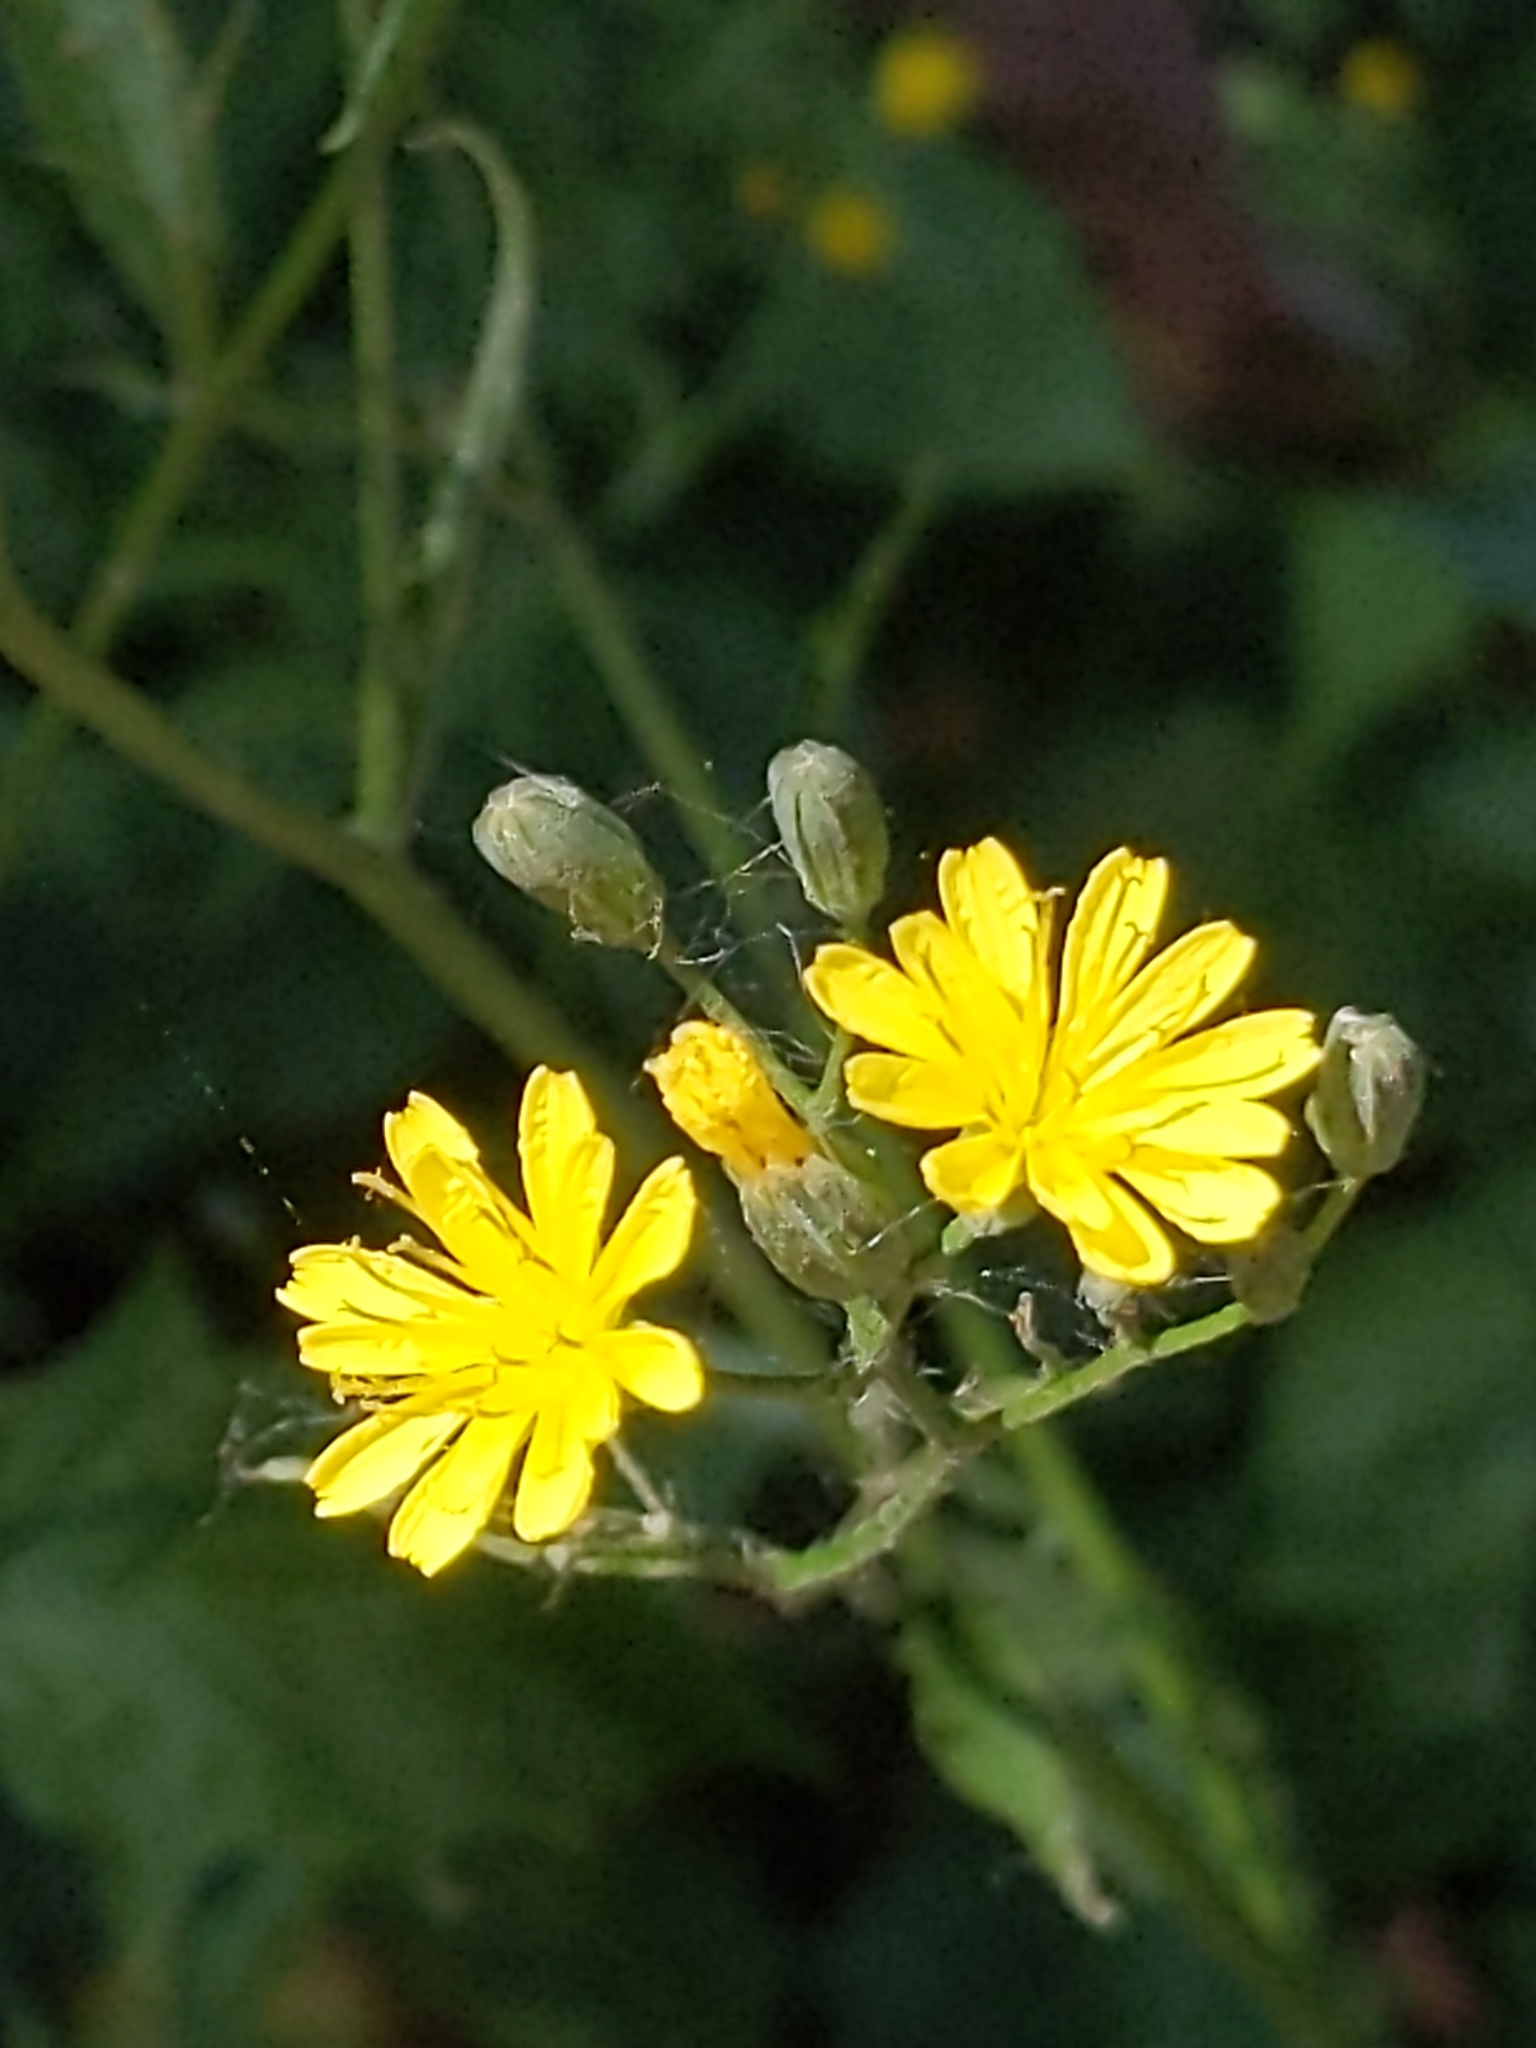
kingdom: Plantae
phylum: Tracheophyta
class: Magnoliopsida
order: Asterales
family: Asteraceae
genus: Lapsana
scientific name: Lapsana communis
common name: Nipplewort
